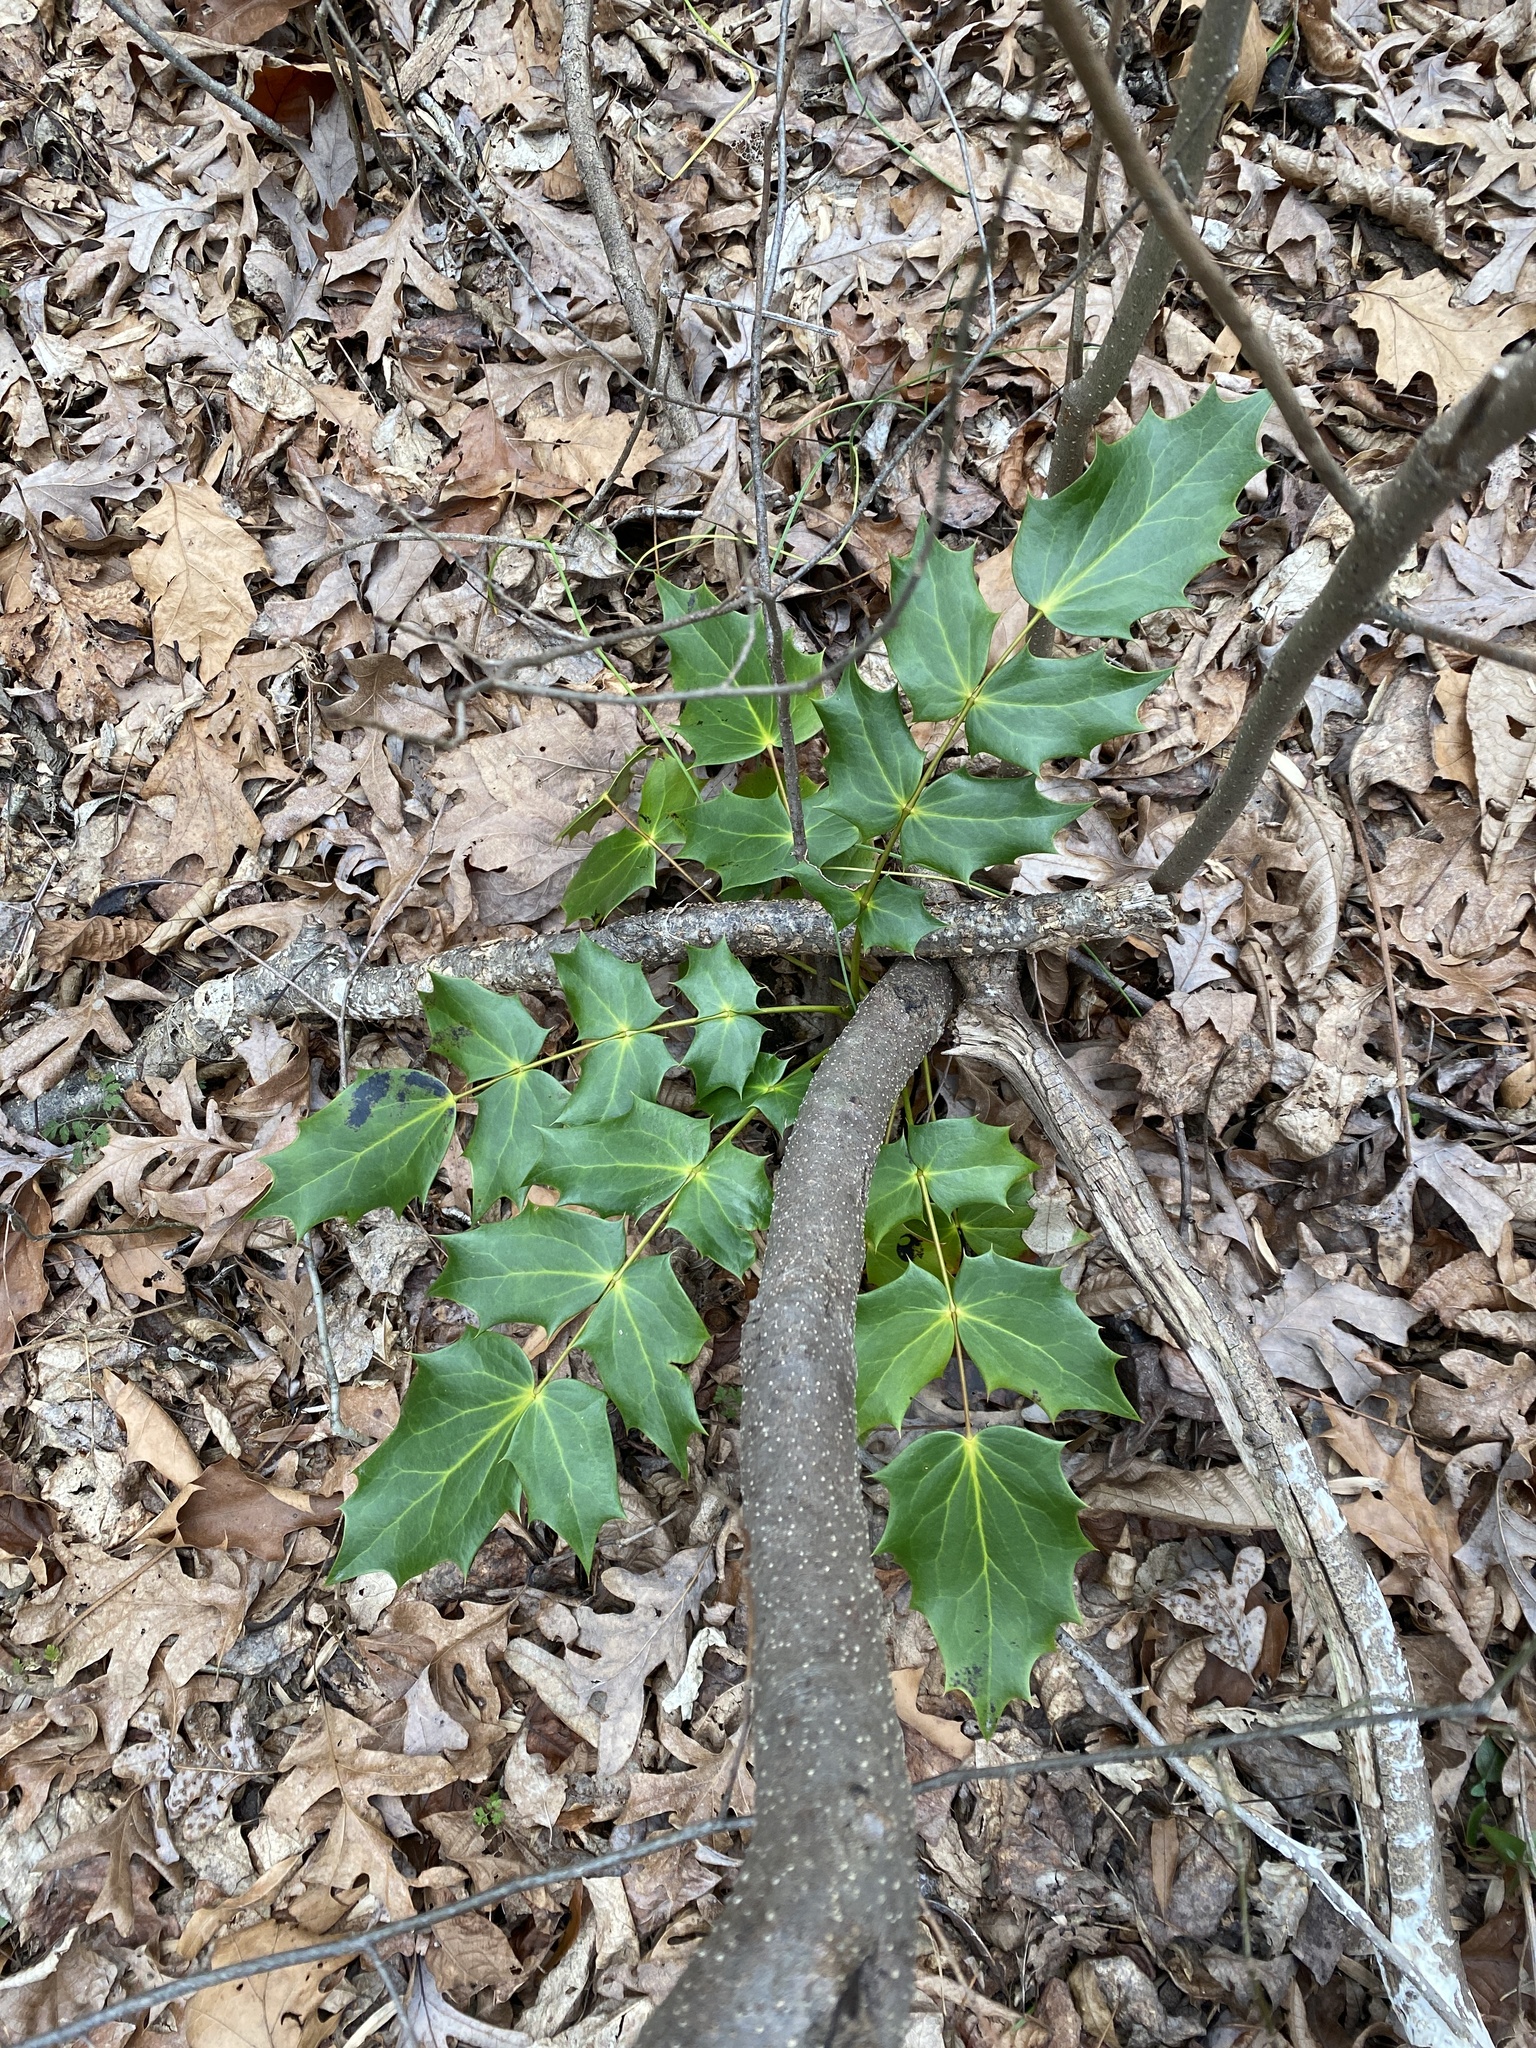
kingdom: Plantae
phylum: Tracheophyta
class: Magnoliopsida
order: Ranunculales
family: Berberidaceae
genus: Mahonia
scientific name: Mahonia bealei
